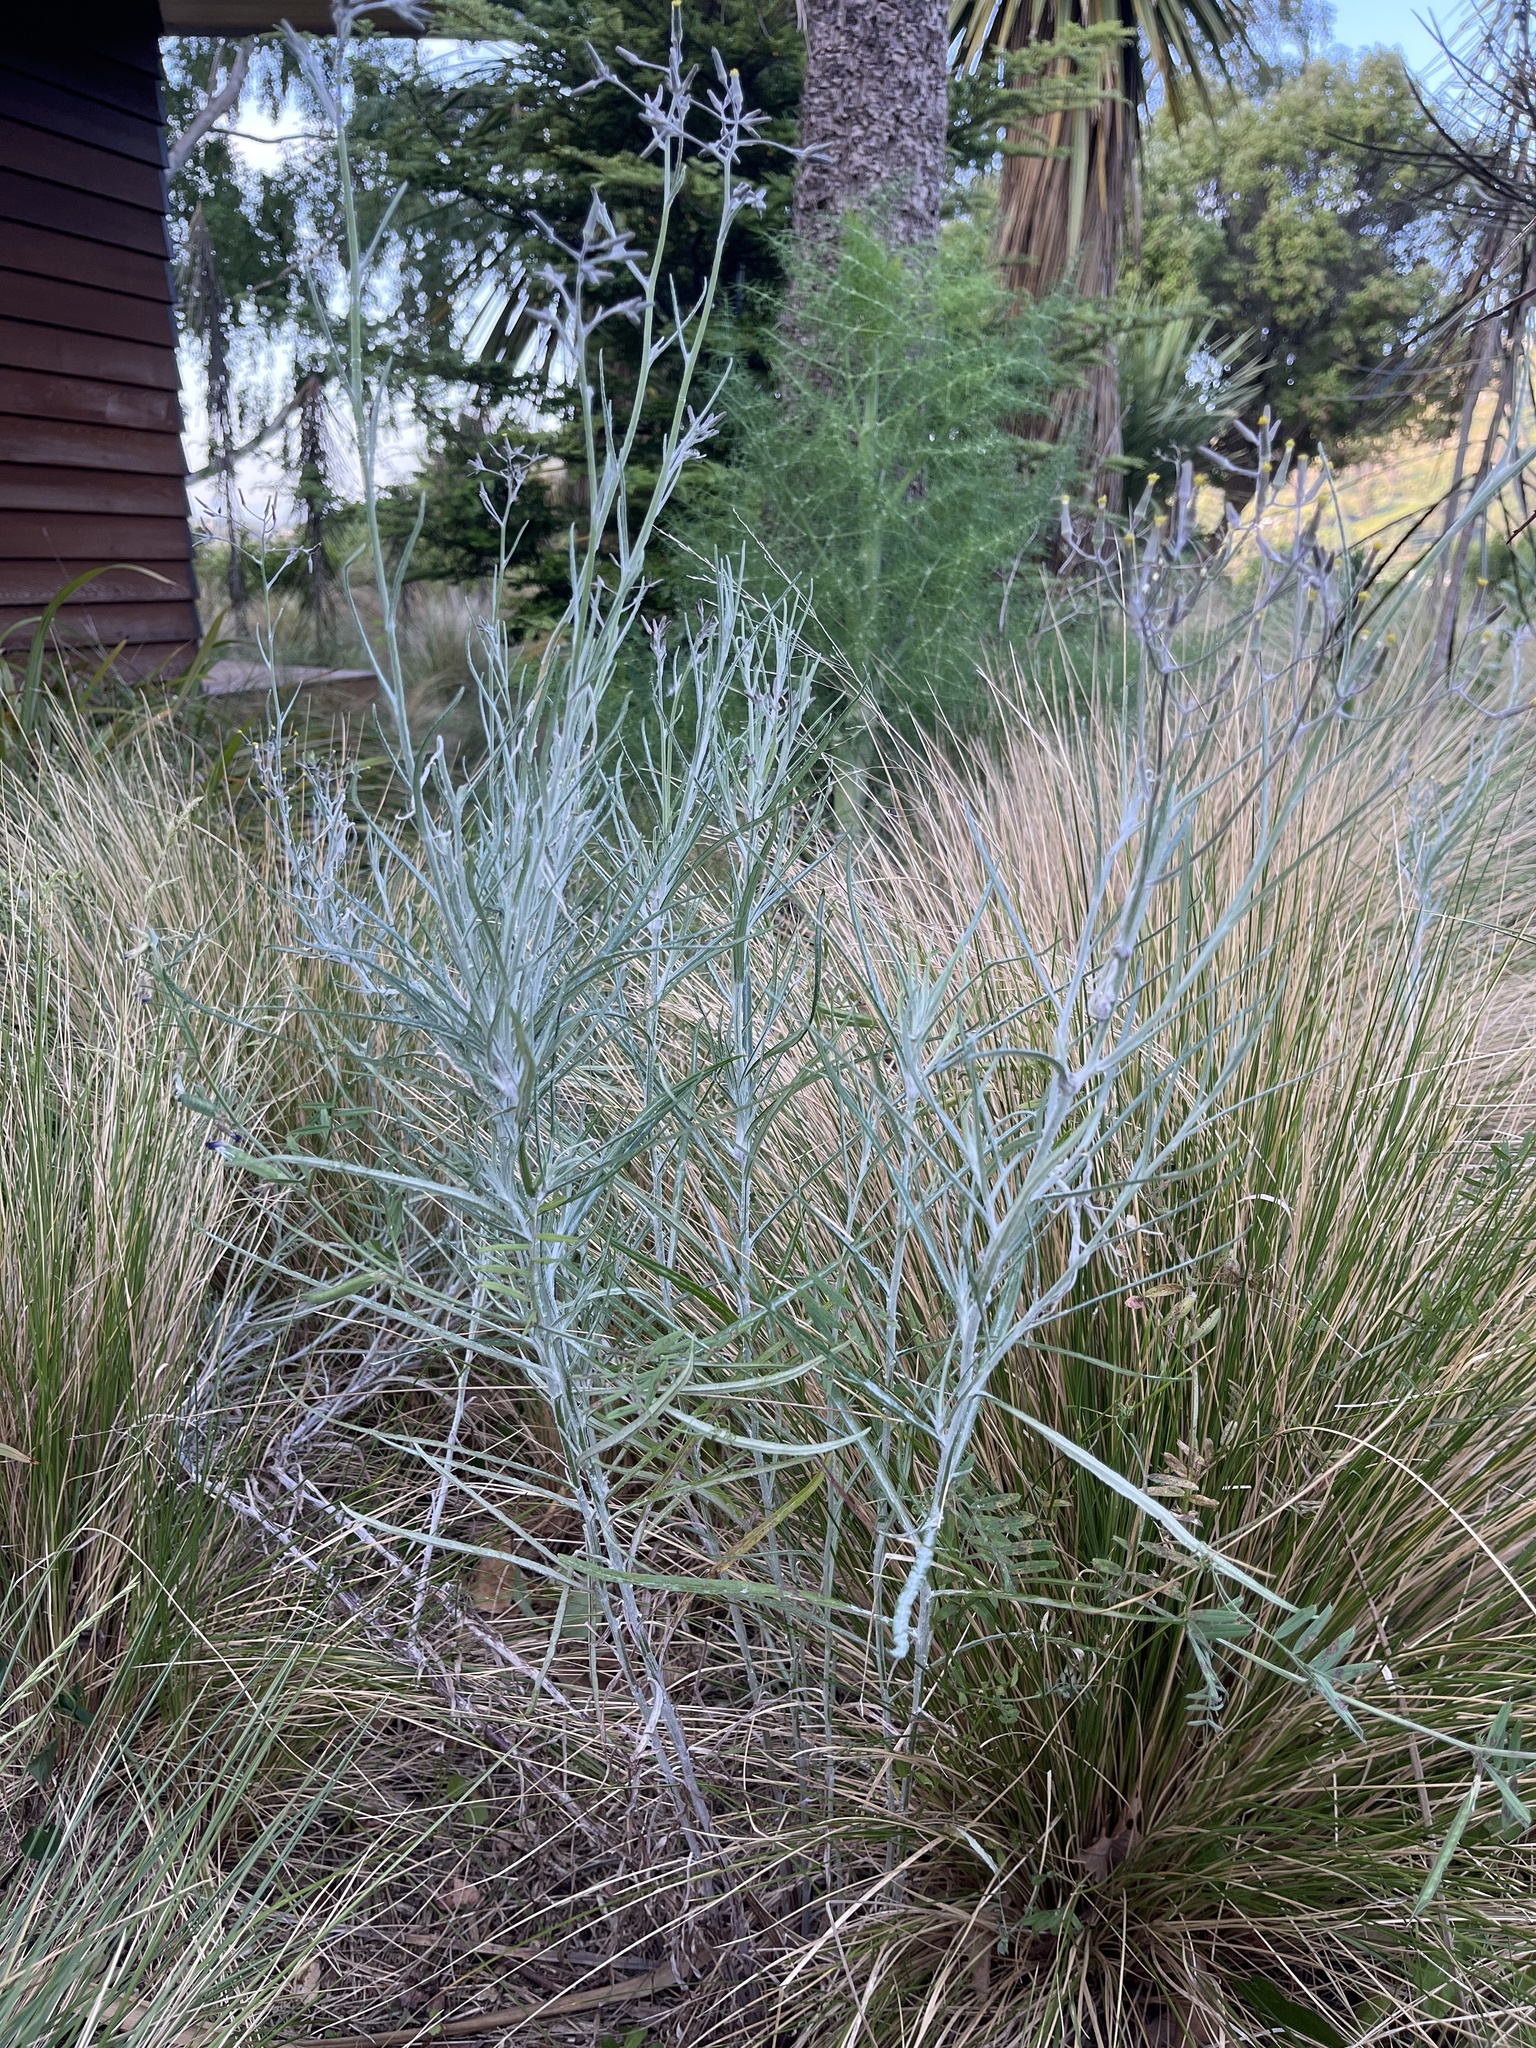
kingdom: Plantae
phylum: Tracheophyta
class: Magnoliopsida
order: Asterales
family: Asteraceae
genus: Senecio
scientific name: Senecio quadridentatus
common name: Cotton fireweed
